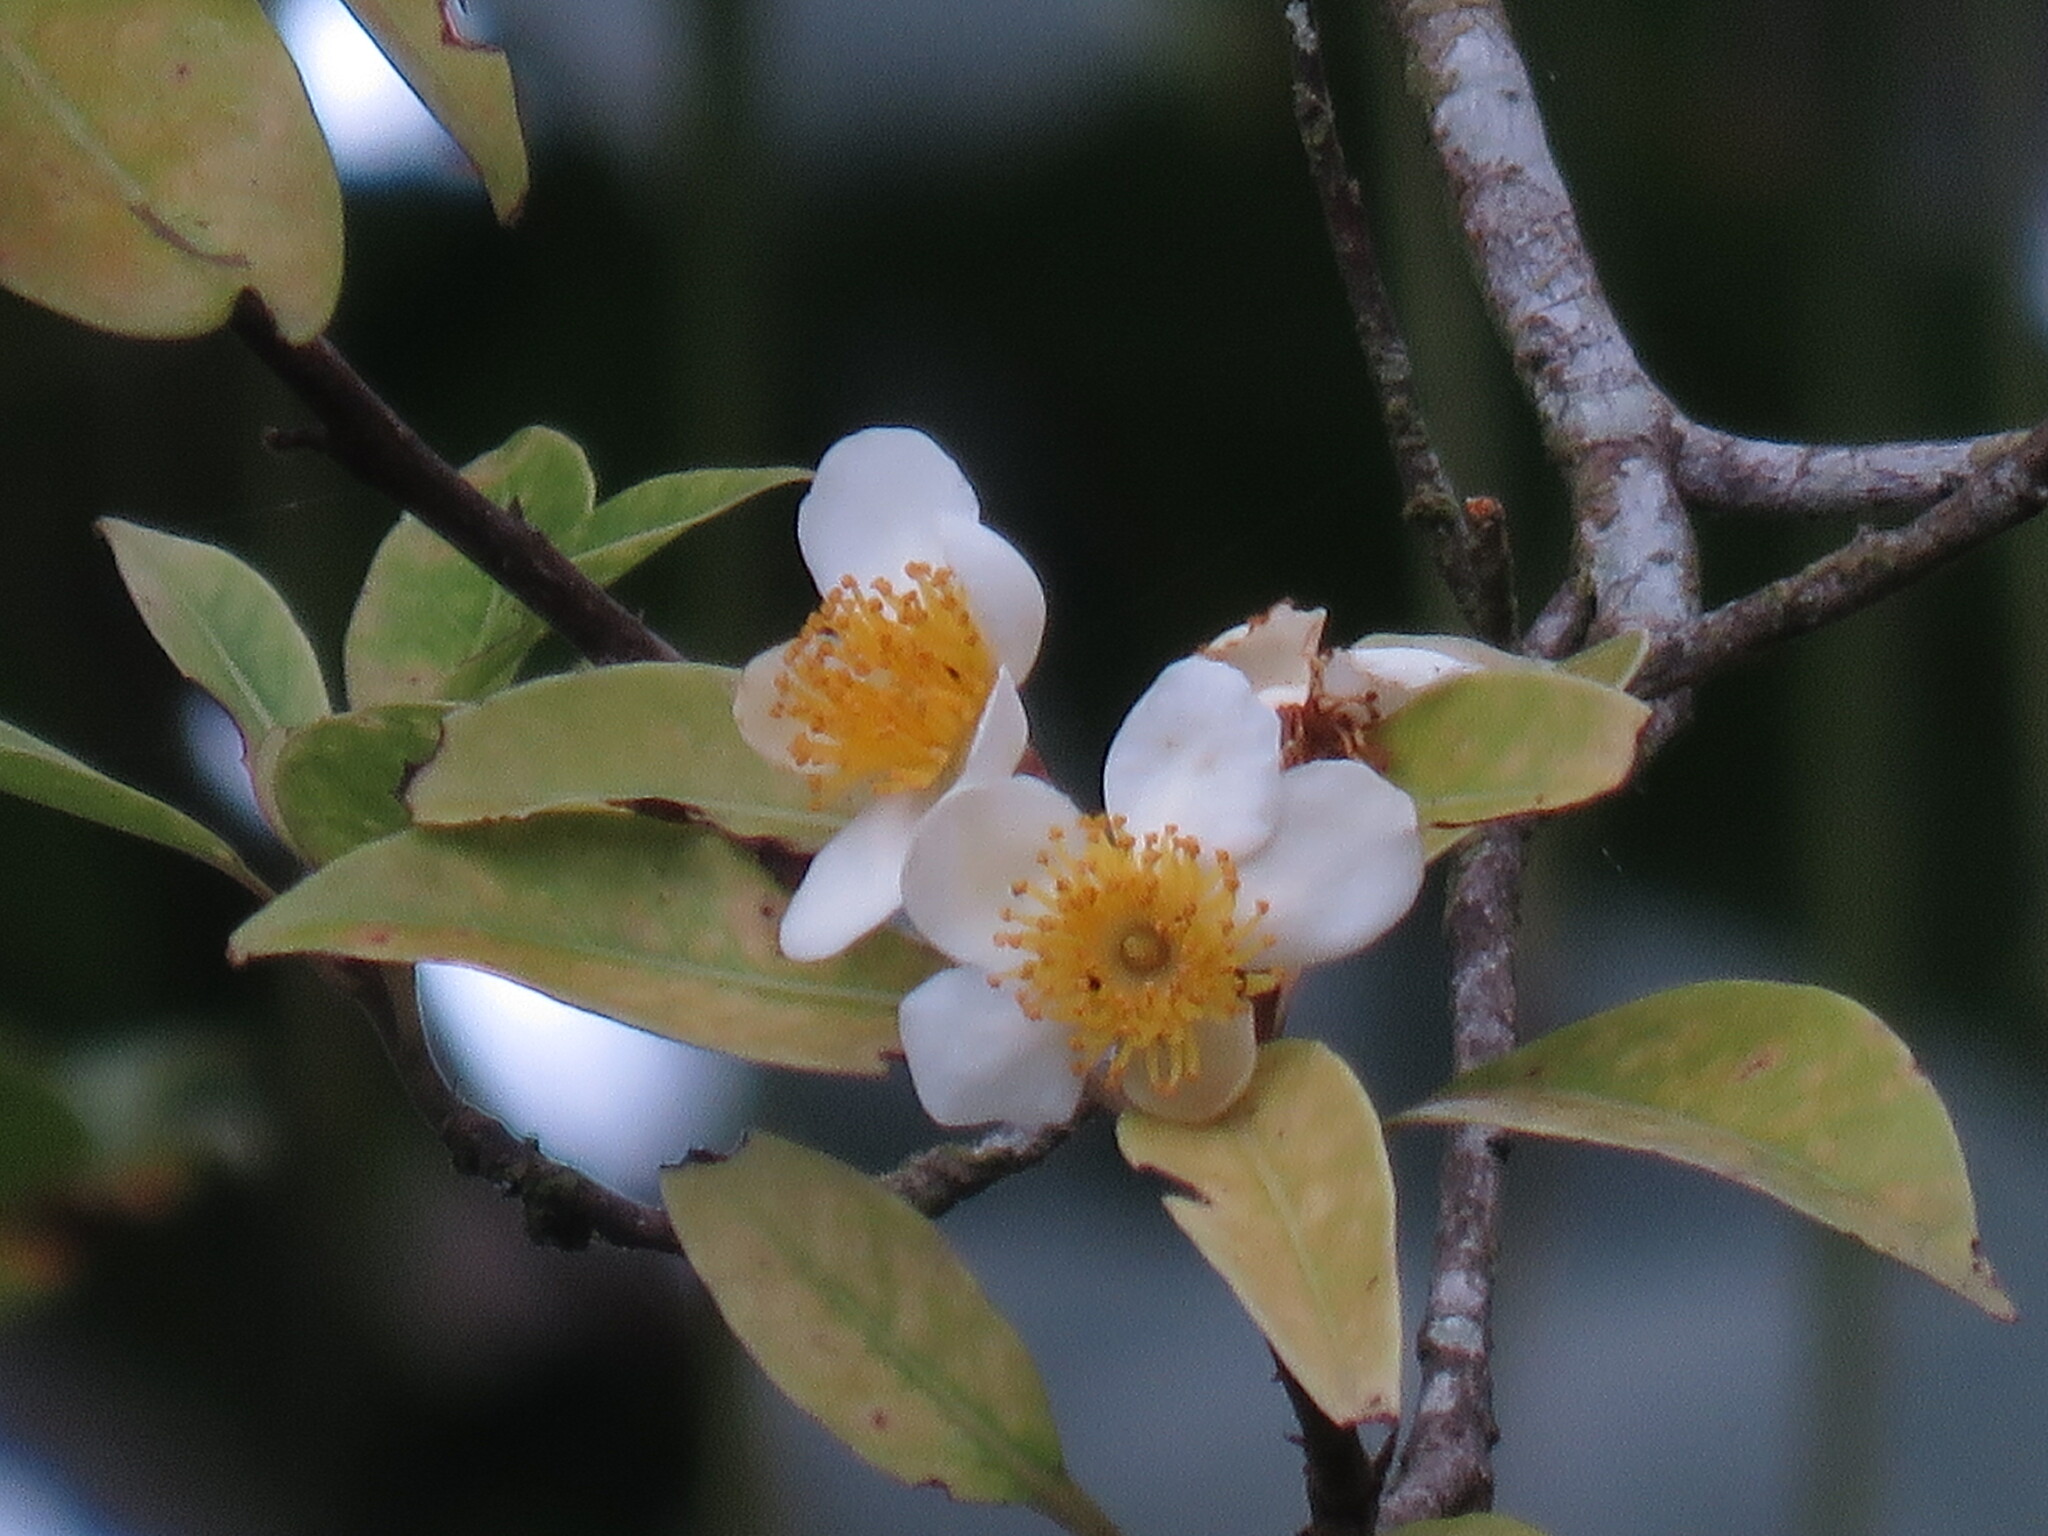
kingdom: Plantae
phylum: Tracheophyta
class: Magnoliopsida
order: Ericales
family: Theaceae
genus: Schima
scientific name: Schima wallichii
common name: Schima
